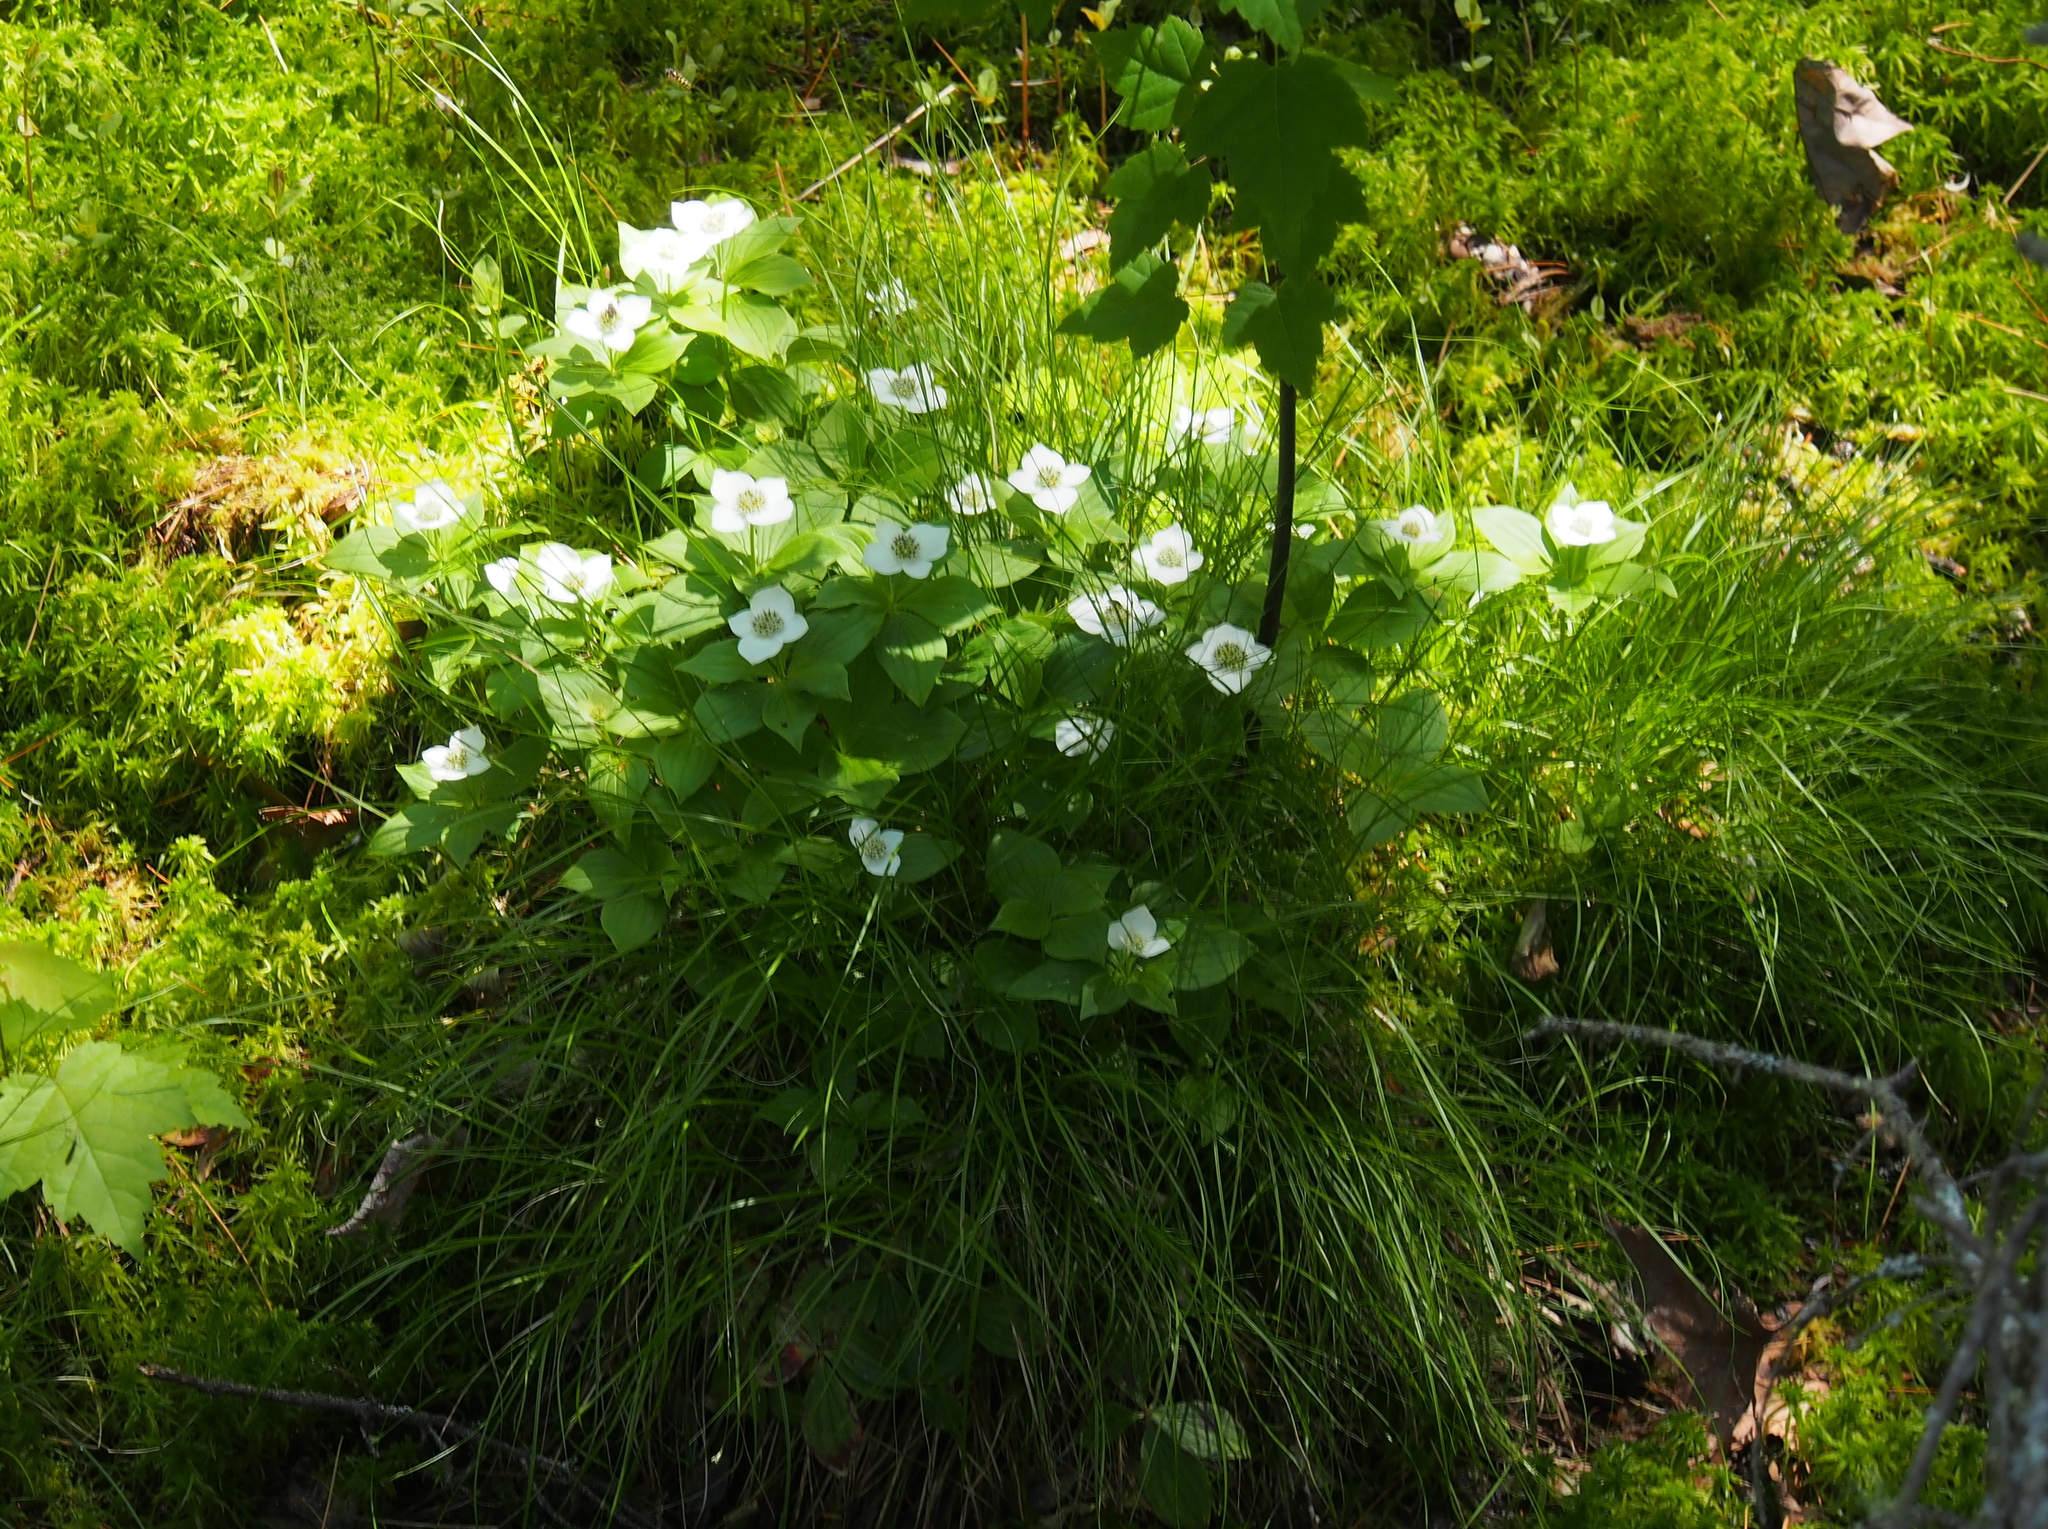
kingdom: Plantae
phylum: Tracheophyta
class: Magnoliopsida
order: Cornales
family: Cornaceae
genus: Cornus
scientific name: Cornus canadensis
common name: Creeping dogwood
